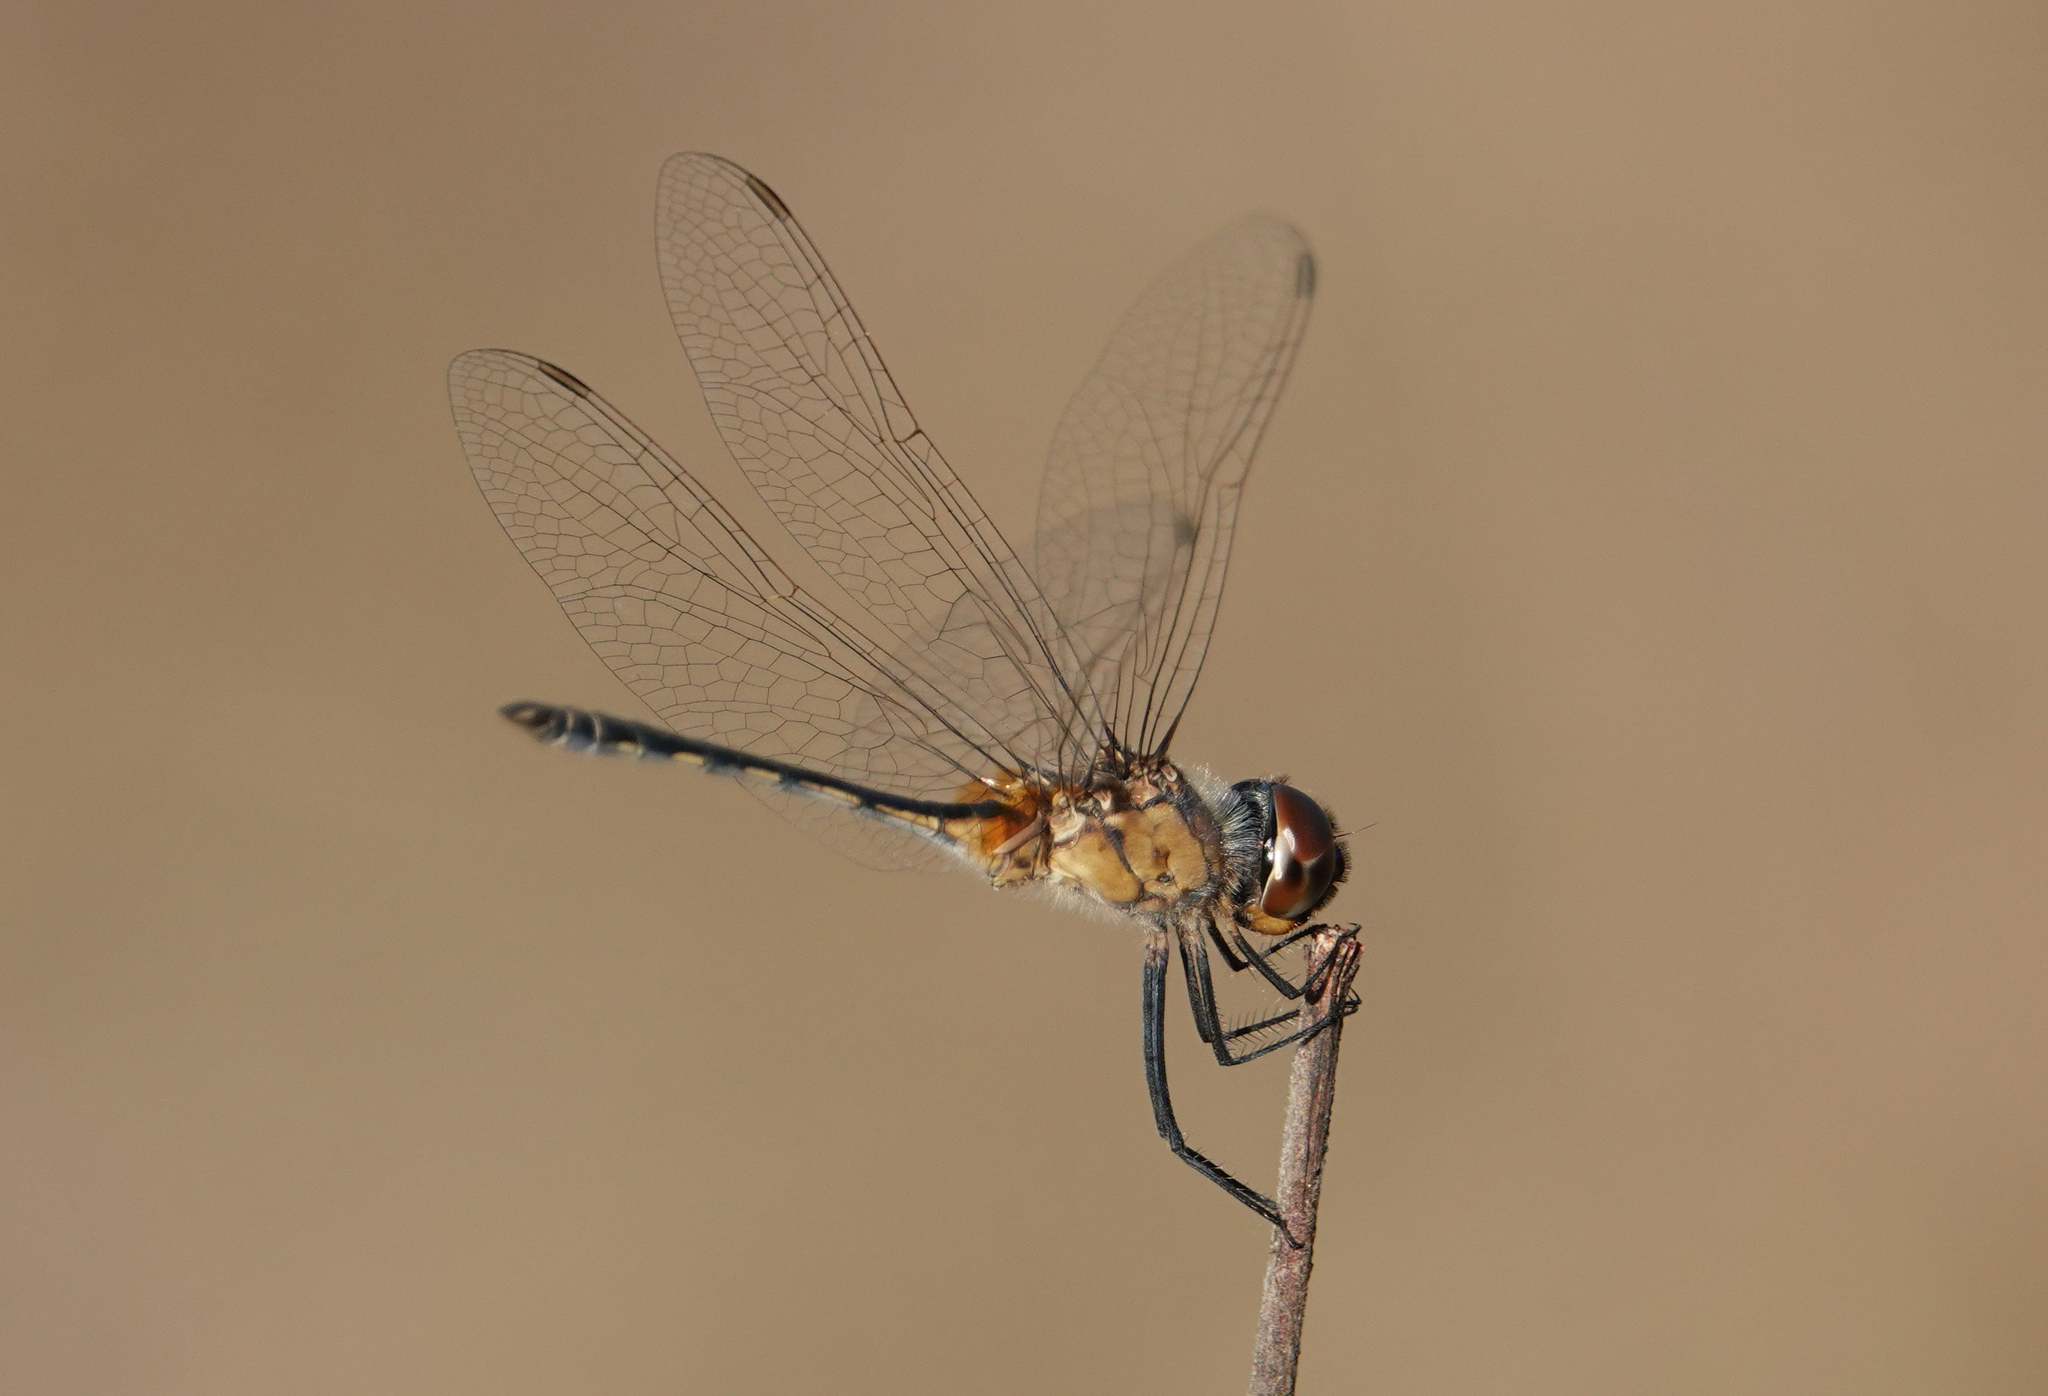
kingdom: Animalia
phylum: Arthropoda
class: Insecta
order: Odonata
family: Libellulidae
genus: Idiataphe
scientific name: Idiataphe longipes
